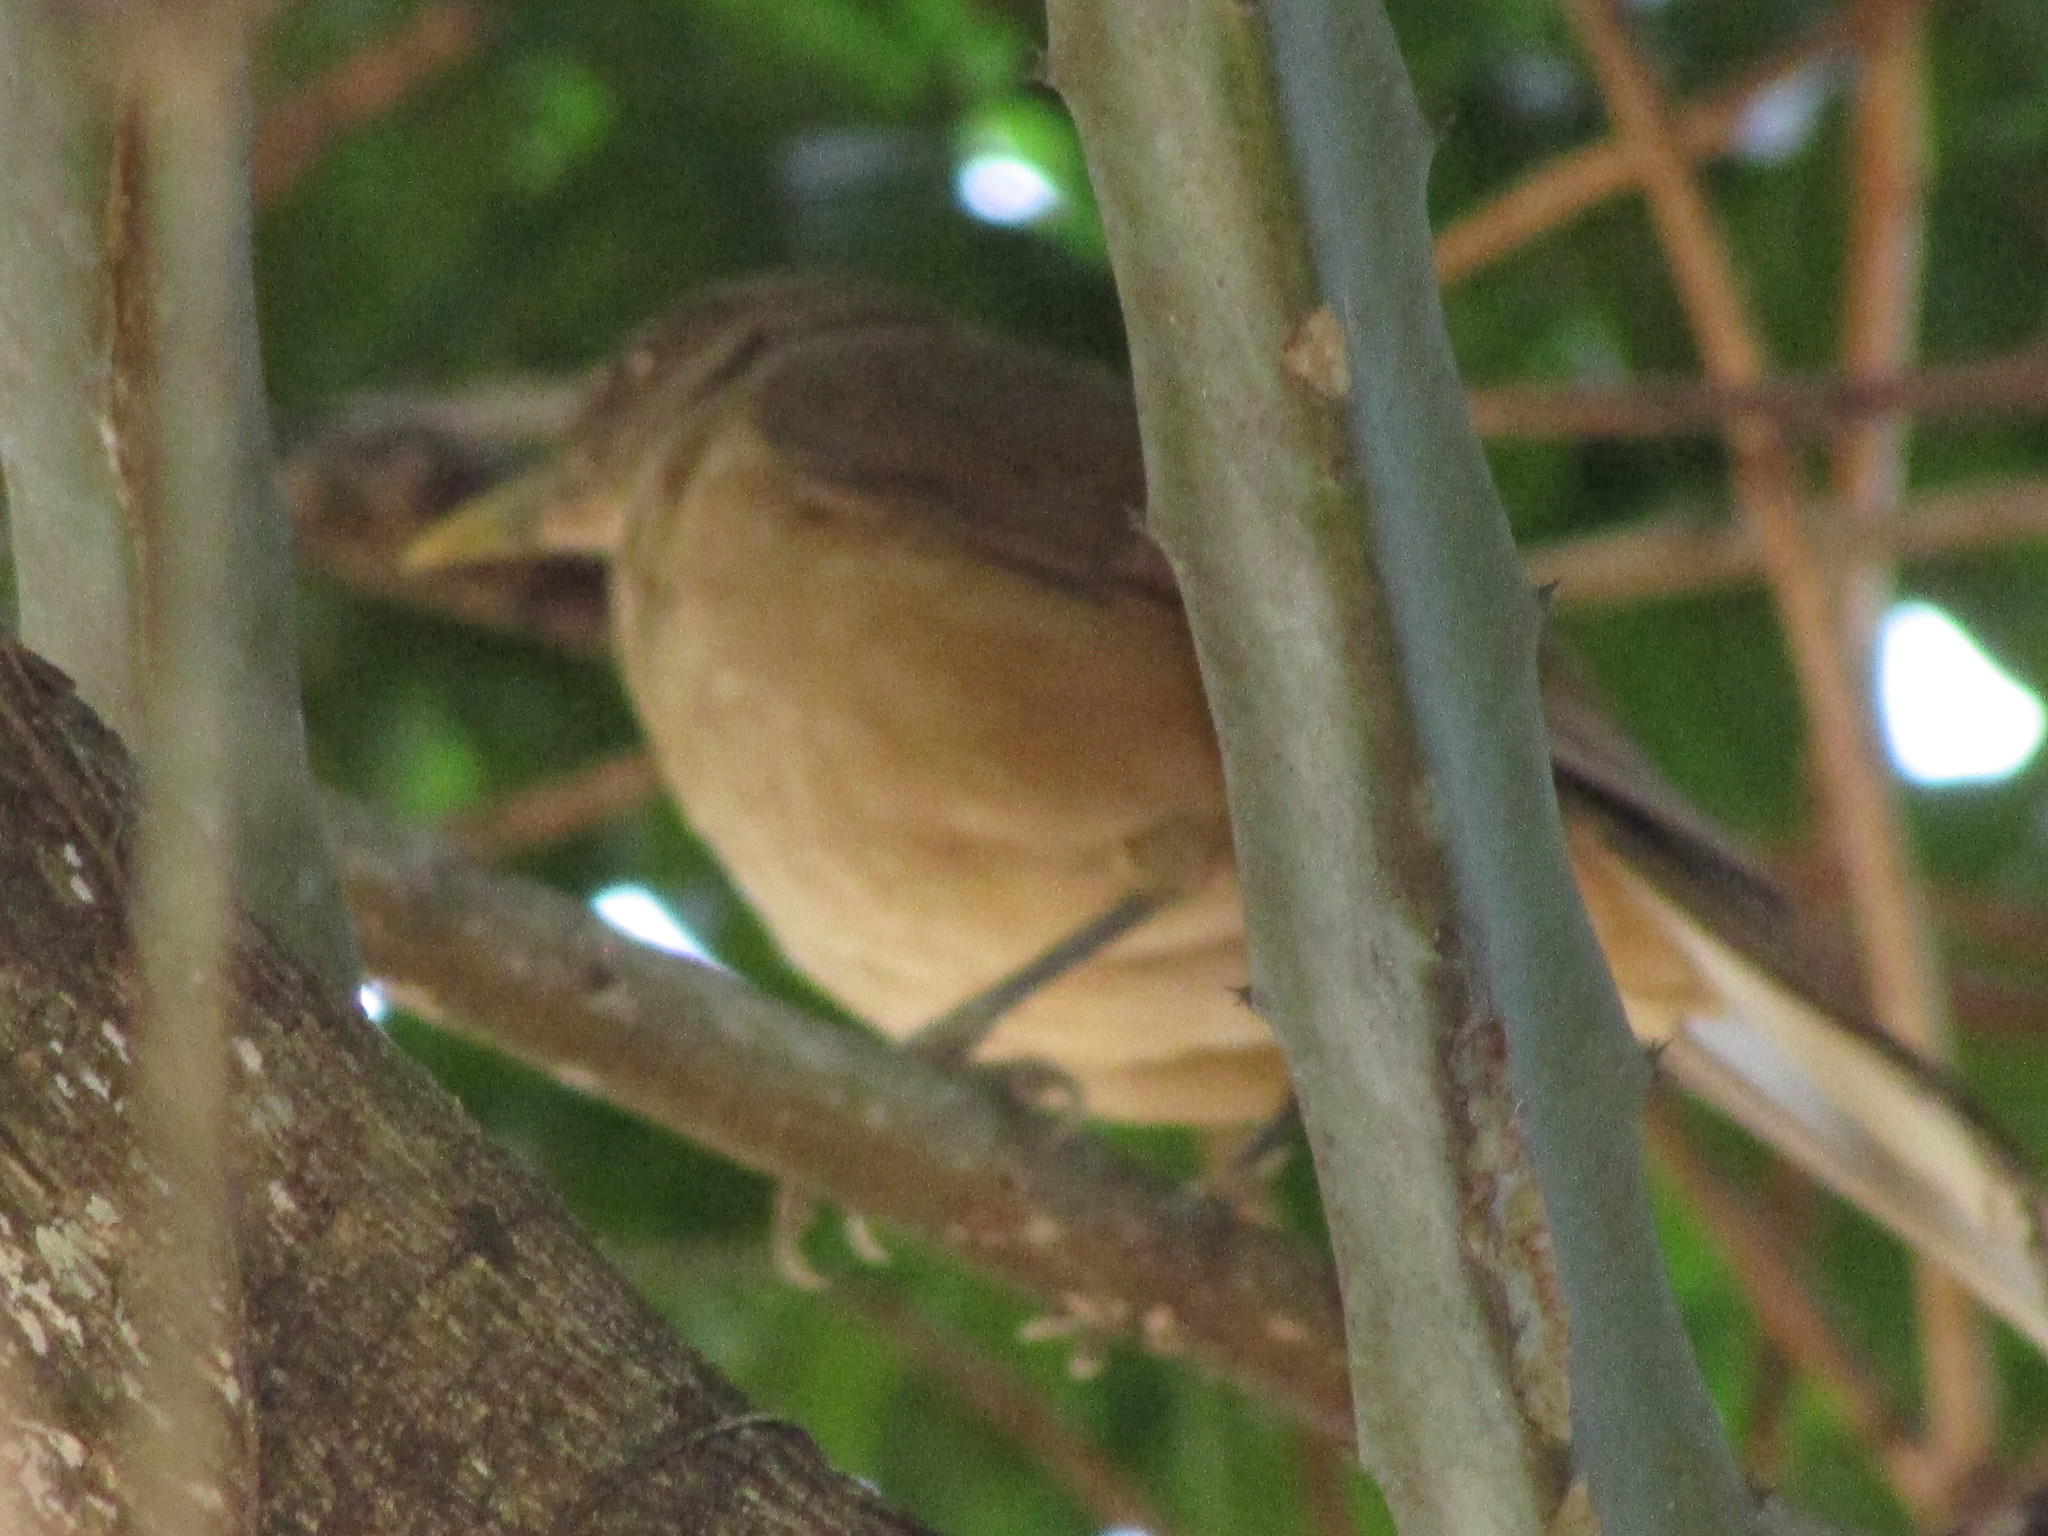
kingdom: Animalia
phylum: Chordata
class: Aves
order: Passeriformes
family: Turdidae
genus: Turdus
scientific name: Turdus grayi
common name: Clay-colored thrush
